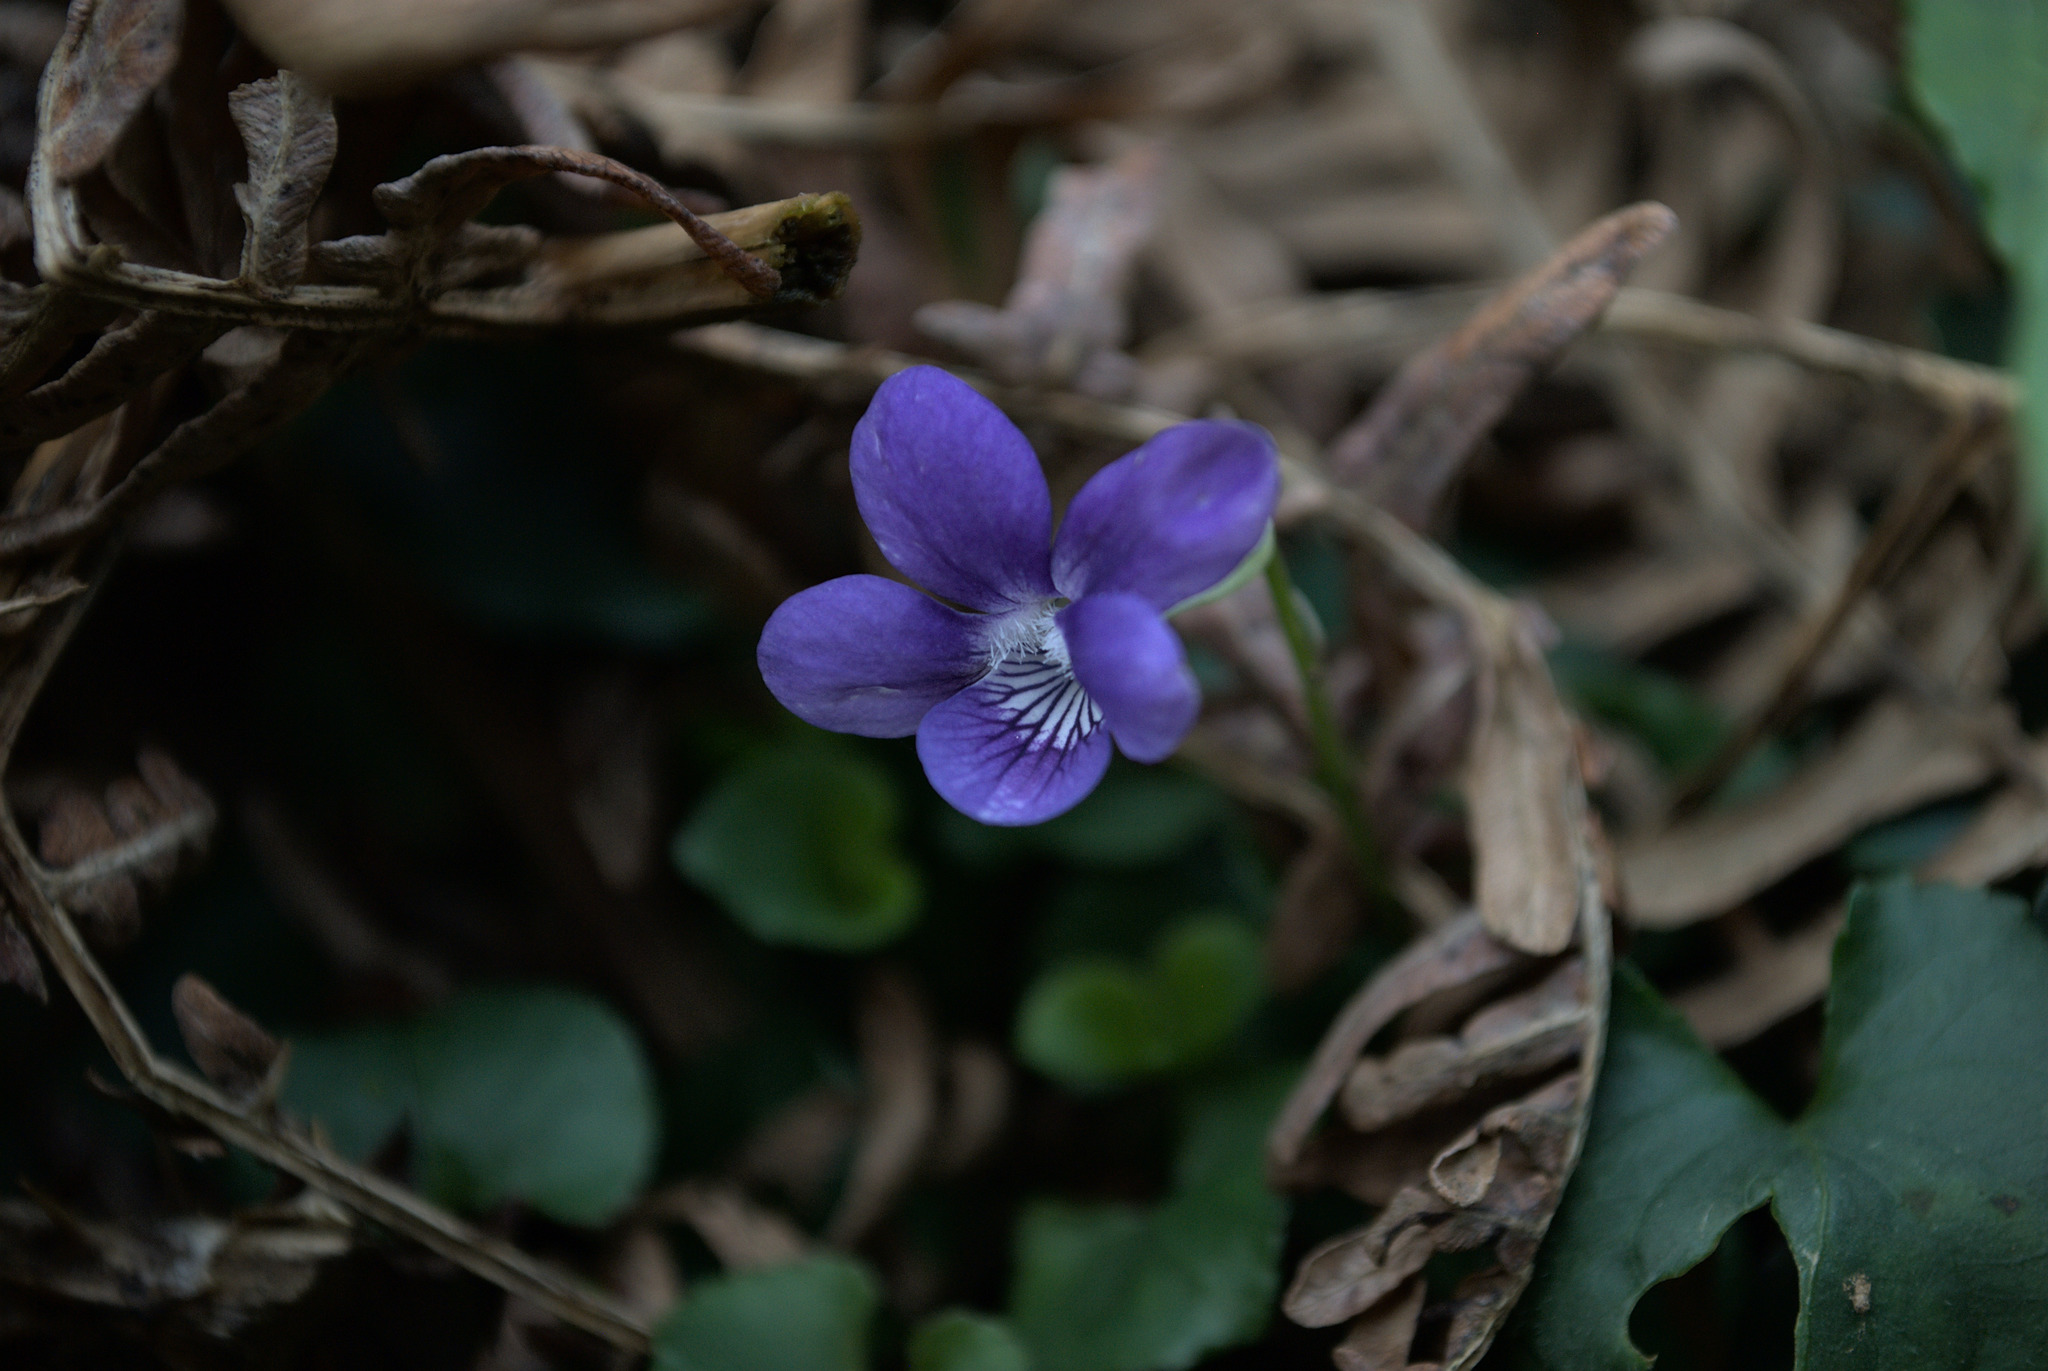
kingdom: Plantae
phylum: Tracheophyta
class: Magnoliopsida
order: Malpighiales
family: Violaceae
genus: Viola
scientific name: Viola riviniana
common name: Common dog-violet
